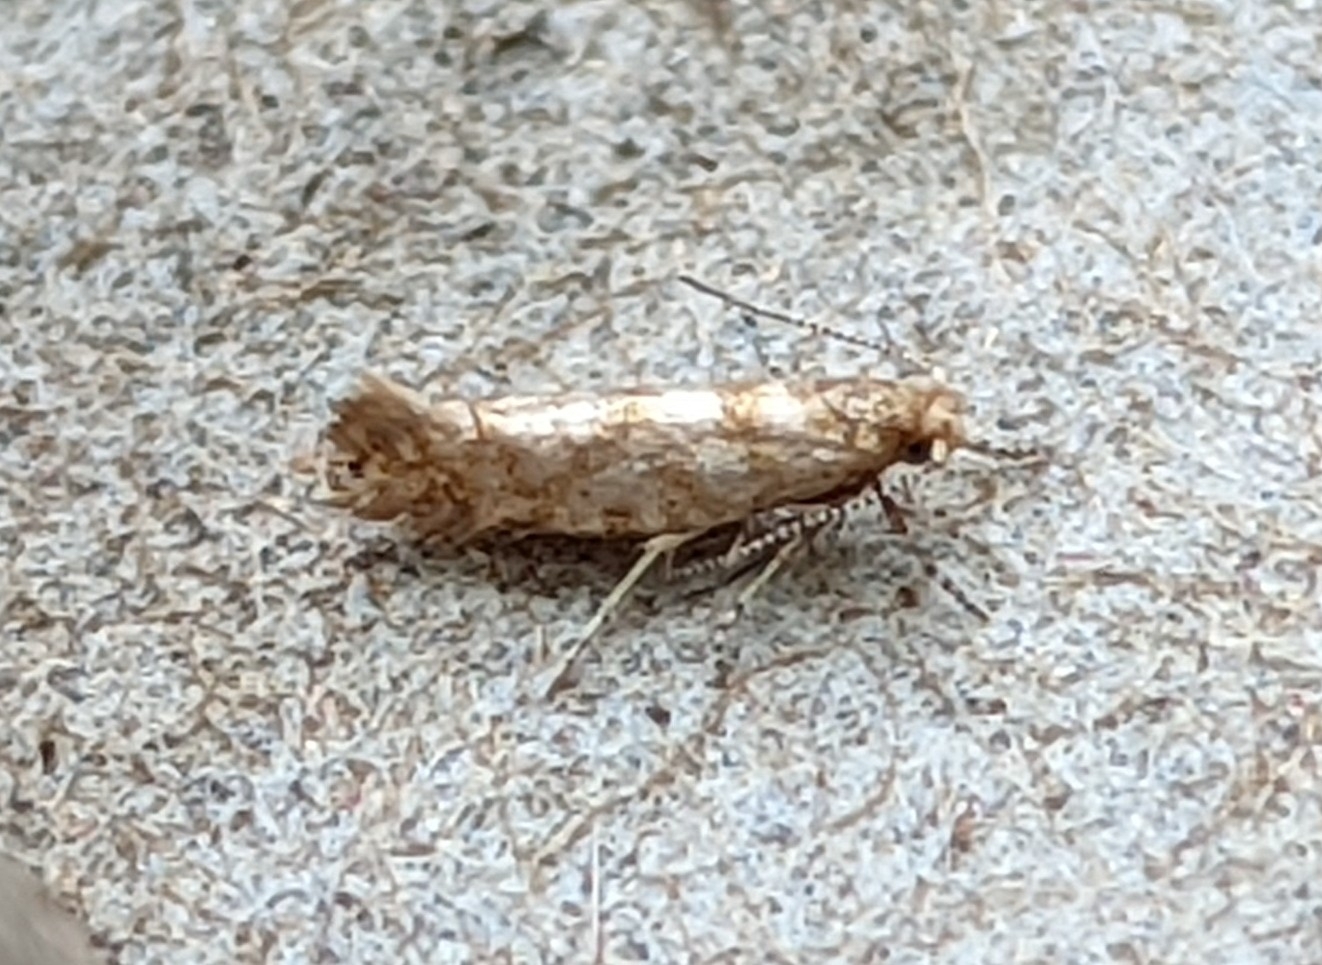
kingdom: Animalia
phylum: Arthropoda
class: Insecta
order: Lepidoptera
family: Argyresthiidae
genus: Argyresthia
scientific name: Argyresthia goedartella
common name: Golden argent
